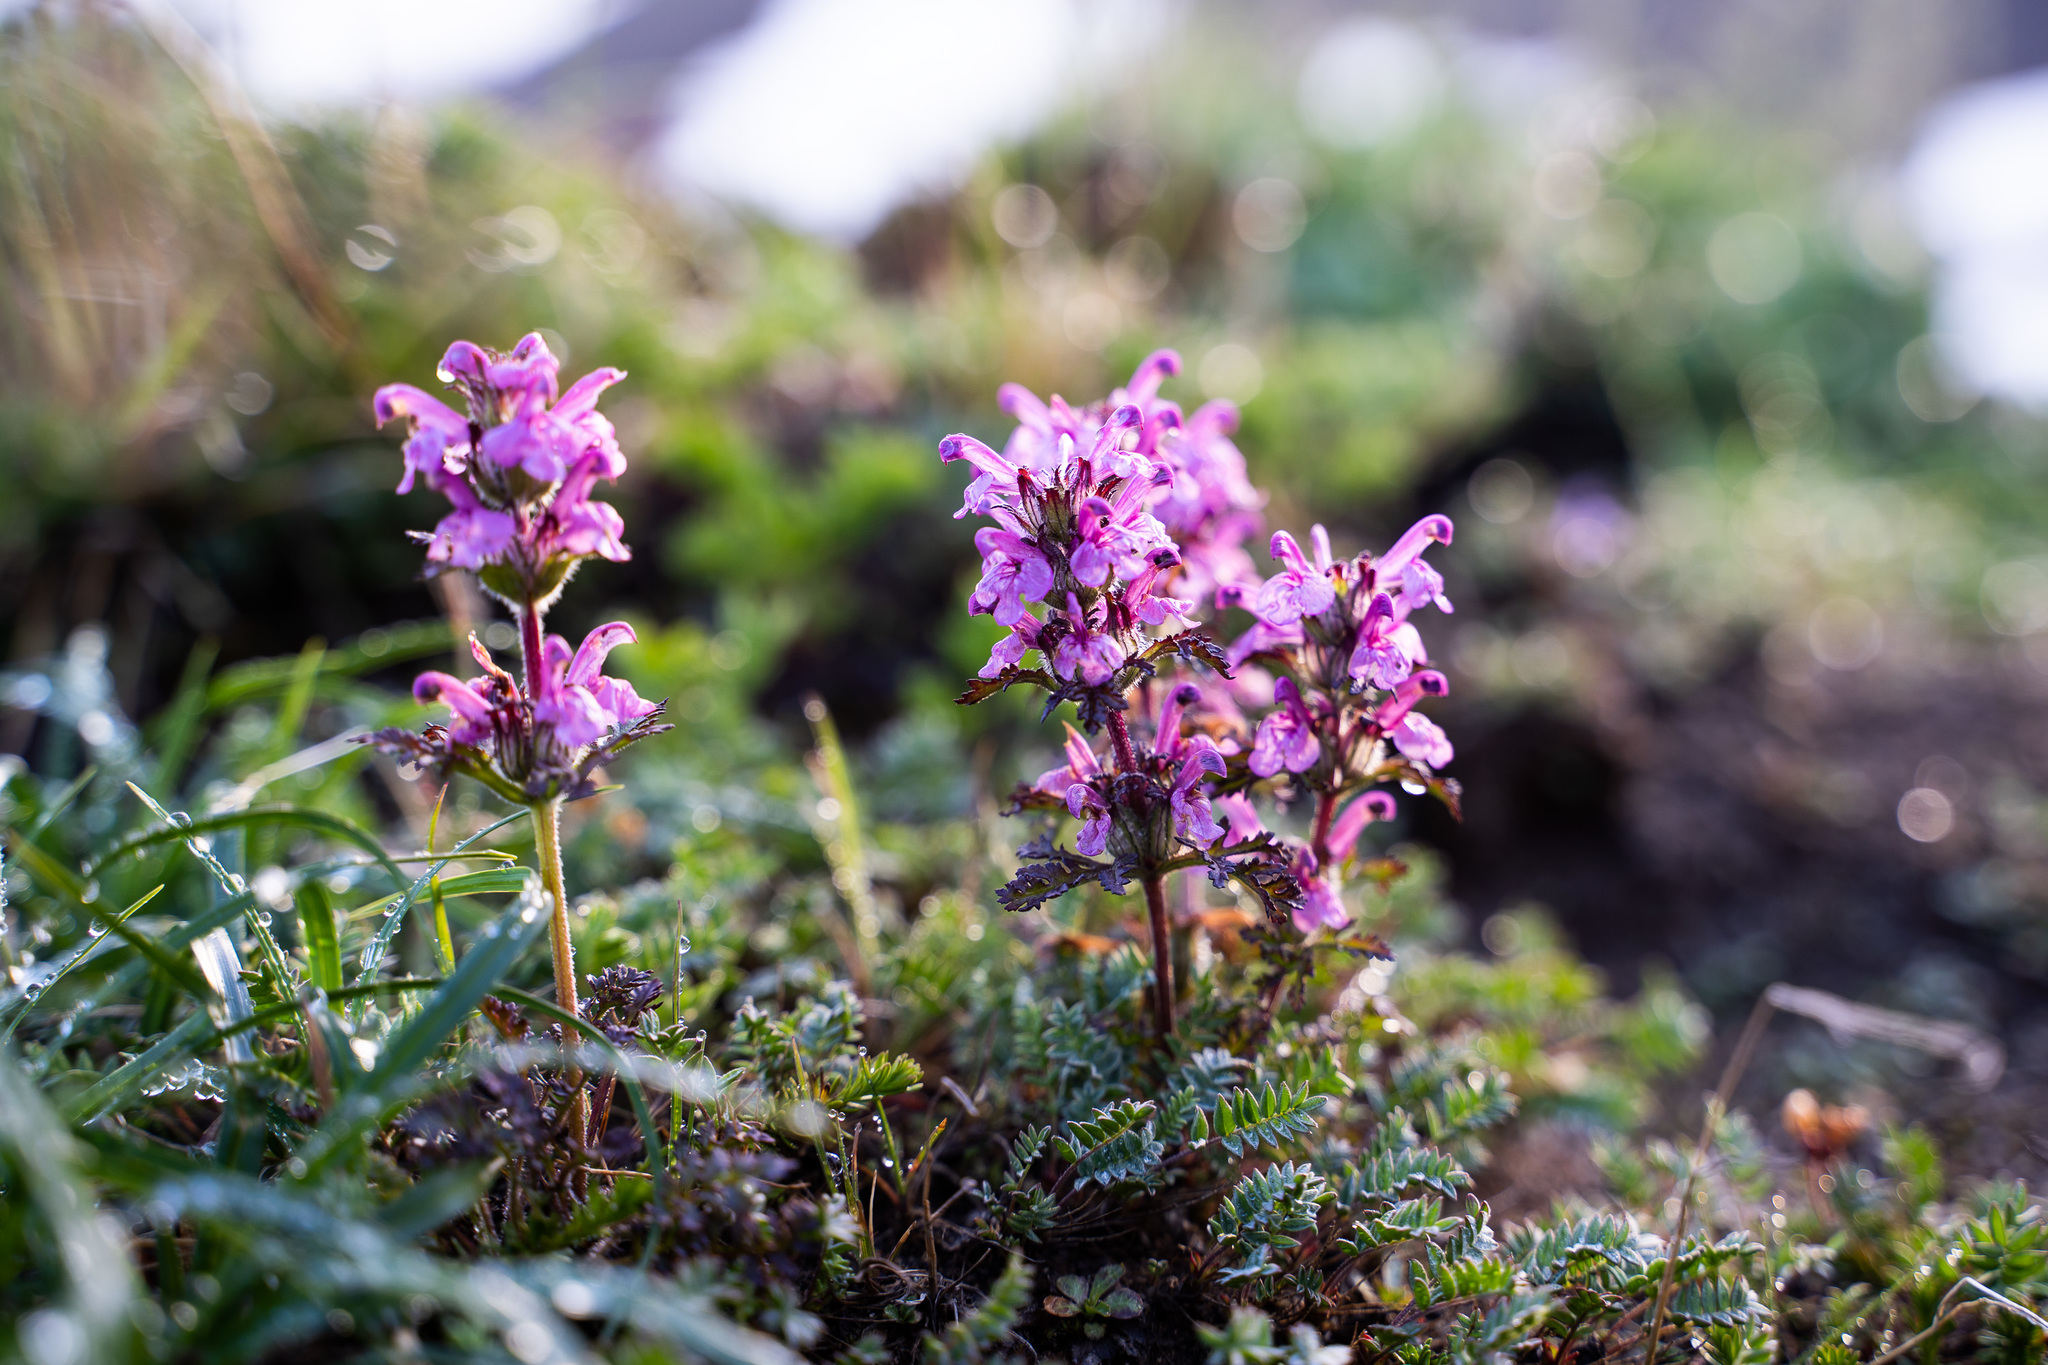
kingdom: Plantae
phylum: Tracheophyta
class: Magnoliopsida
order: Lamiales
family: Orobanchaceae
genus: Pedicularis
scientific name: Pedicularis verticillata
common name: Whorled lousewort
